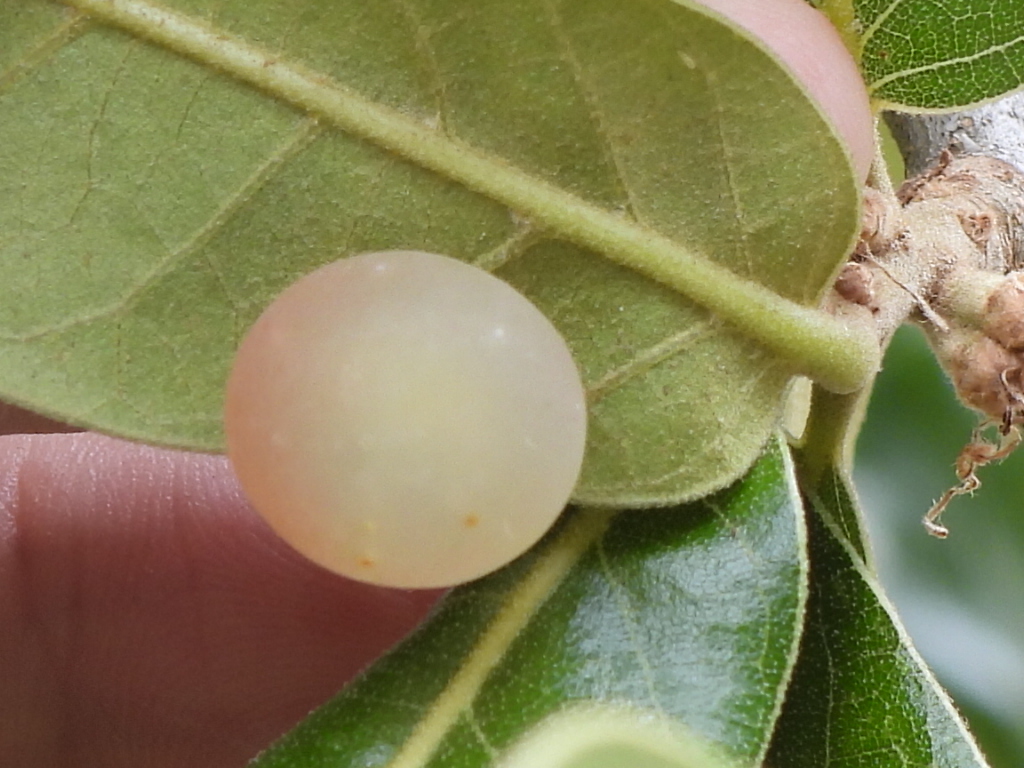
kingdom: Animalia
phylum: Arthropoda
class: Insecta
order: Hymenoptera
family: Cynipidae
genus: Amphibolips
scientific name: Amphibolips
